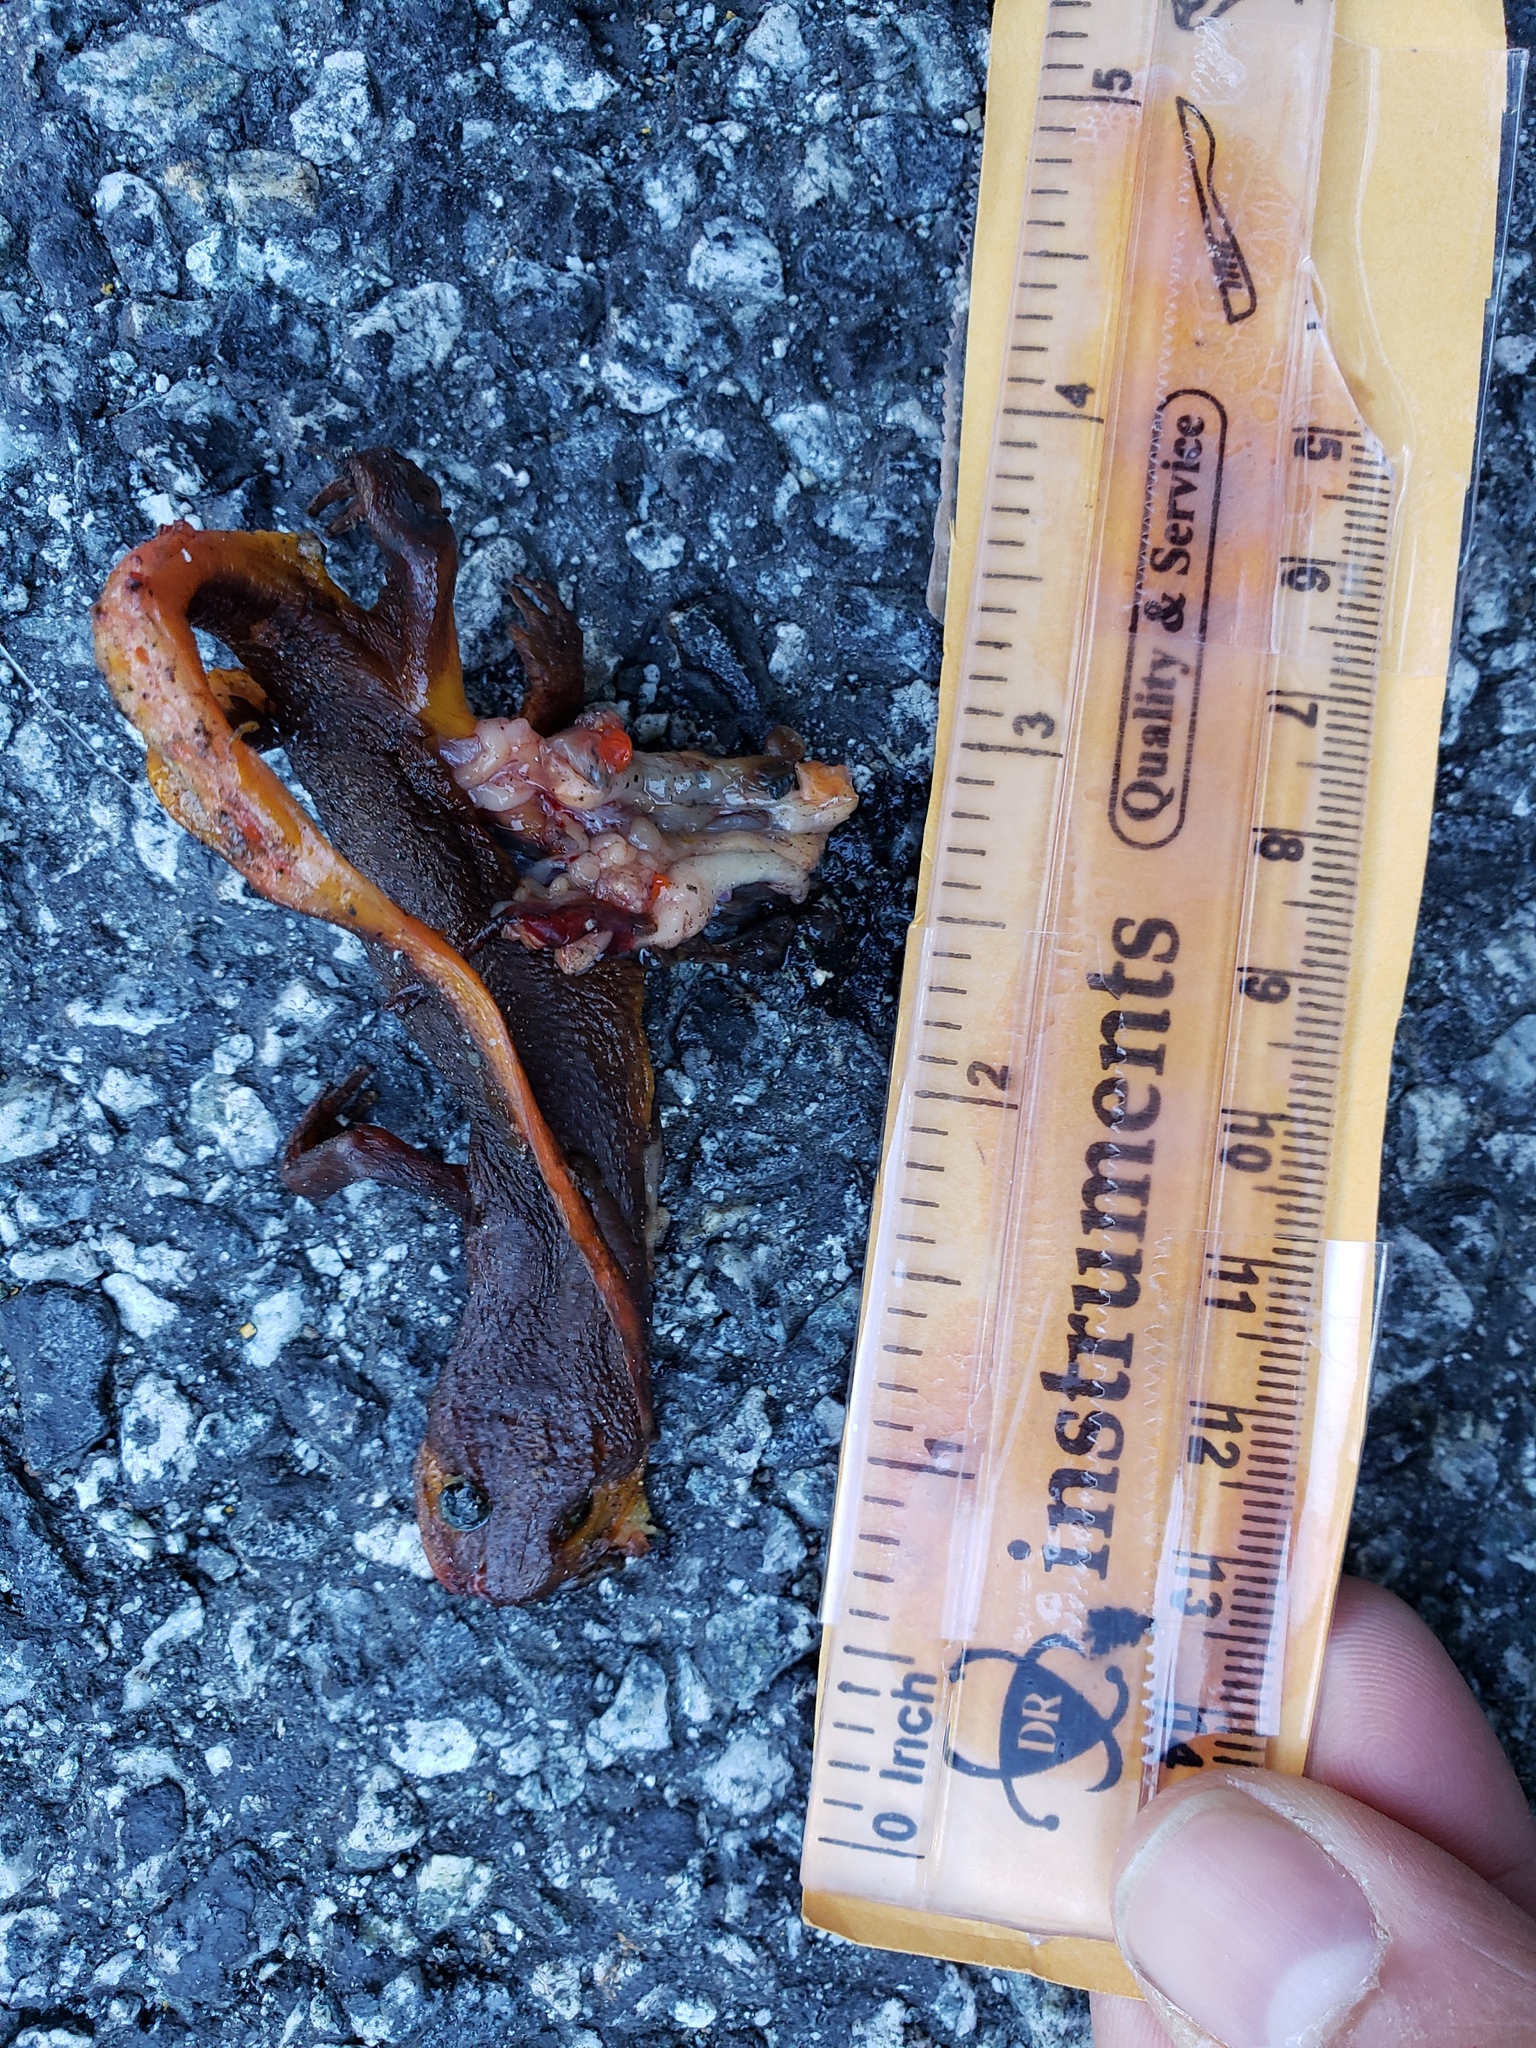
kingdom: Animalia
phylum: Chordata
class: Amphibia
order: Caudata
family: Salamandridae
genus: Taricha
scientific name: Taricha
